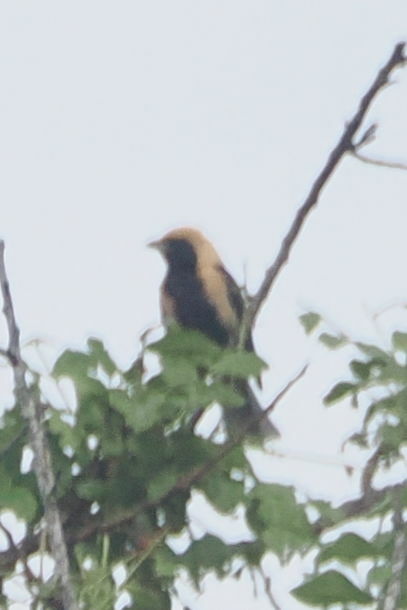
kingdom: Animalia
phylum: Chordata
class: Aves
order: Passeriformes
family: Thraupidae
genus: Stilpnia
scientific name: Stilpnia cayana
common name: Burnished-buff tanager
